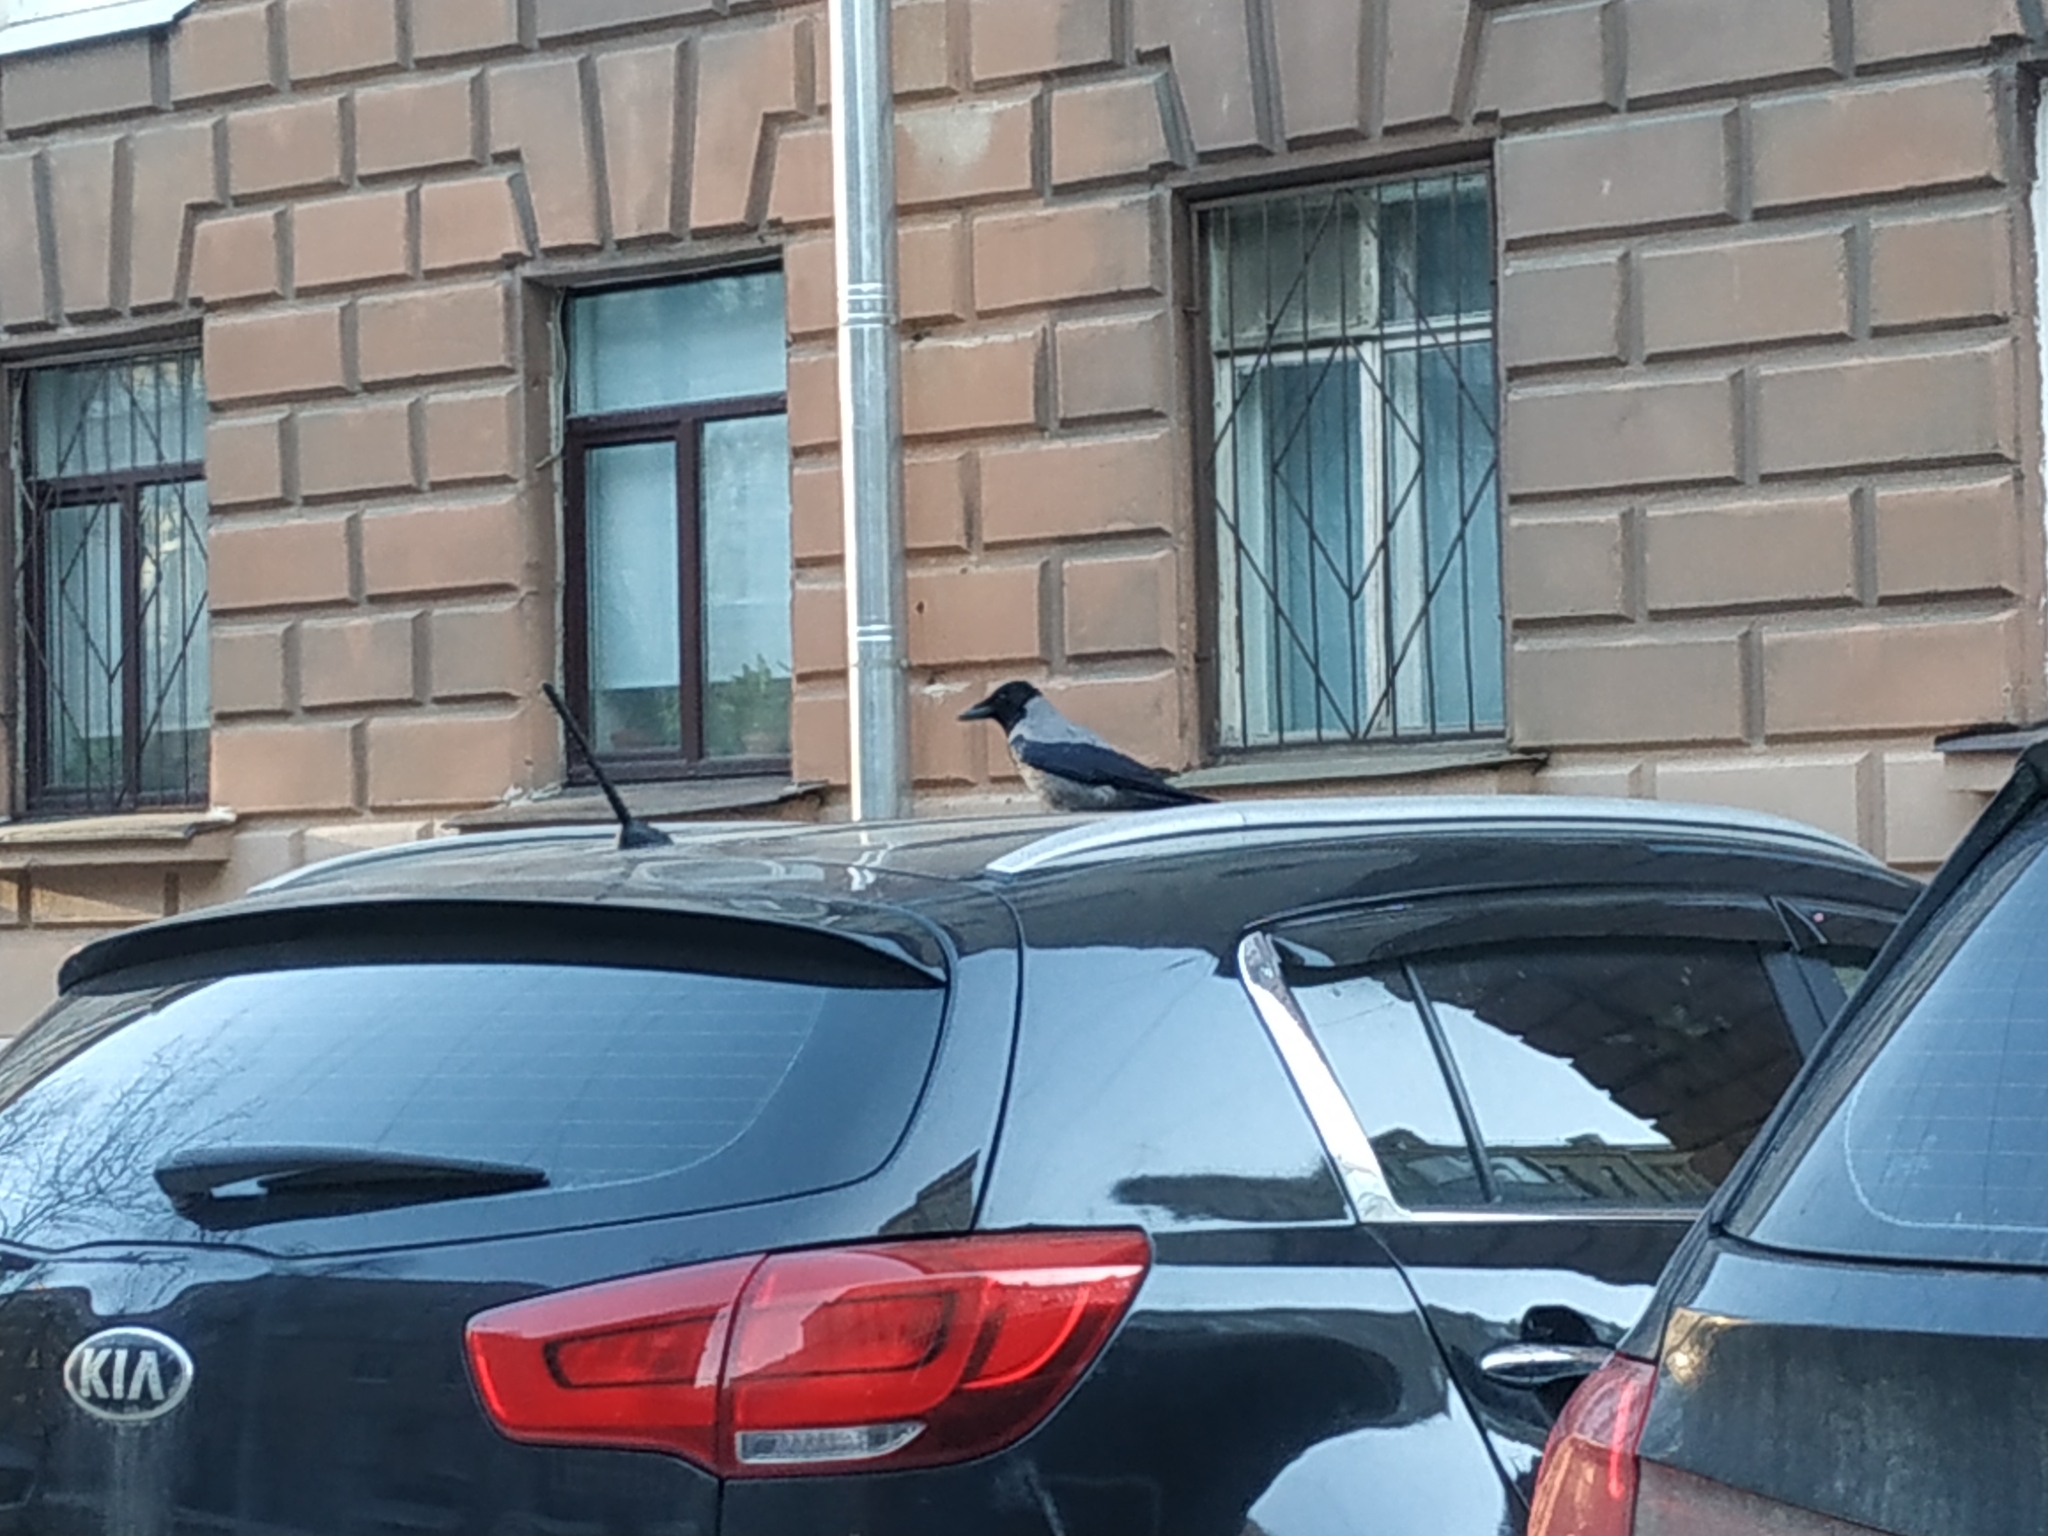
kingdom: Animalia
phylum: Chordata
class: Aves
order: Passeriformes
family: Corvidae
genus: Corvus
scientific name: Corvus cornix
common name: Hooded crow
